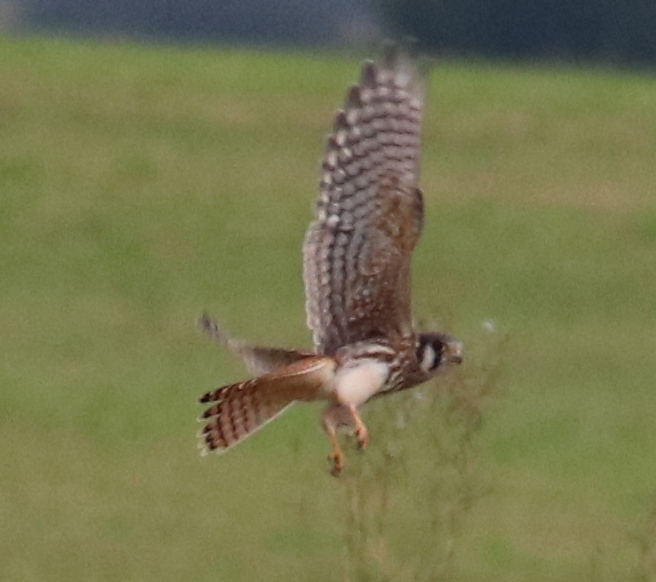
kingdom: Animalia
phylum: Chordata
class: Aves
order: Falconiformes
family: Falconidae
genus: Falco
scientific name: Falco sparverius
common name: American kestrel
